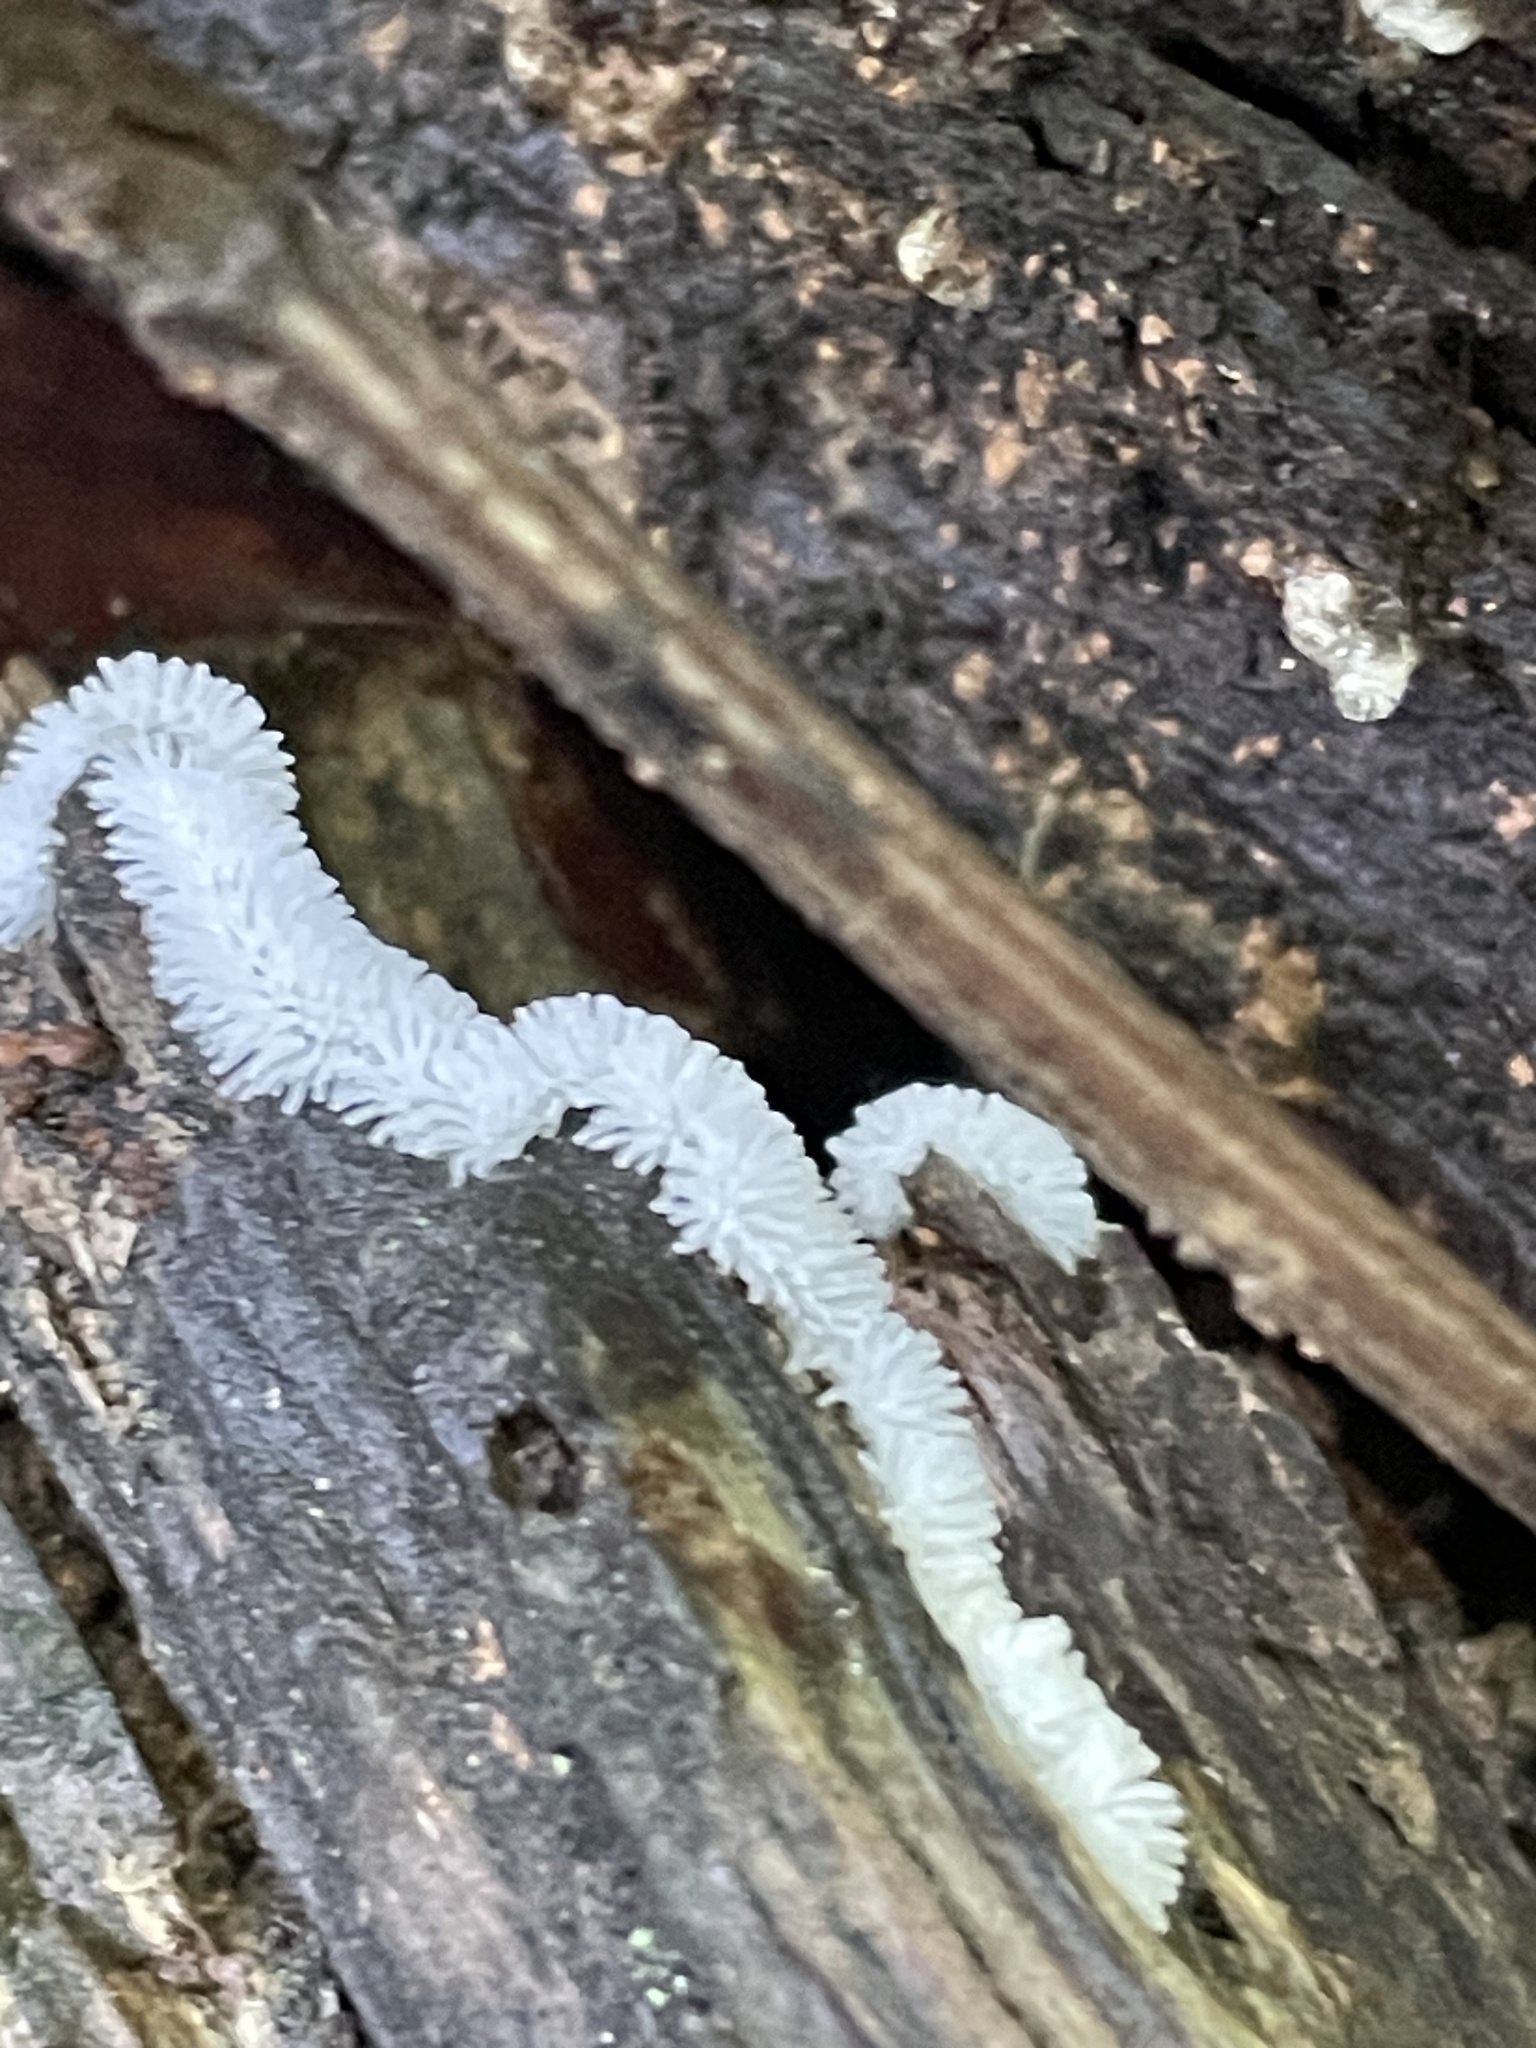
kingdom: Protozoa
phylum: Mycetozoa
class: Protosteliomycetes
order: Ceratiomyxales
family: Ceratiomyxaceae
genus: Ceratiomyxa
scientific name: Ceratiomyxa fruticulosa
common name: Honeycomb coral slime mold
